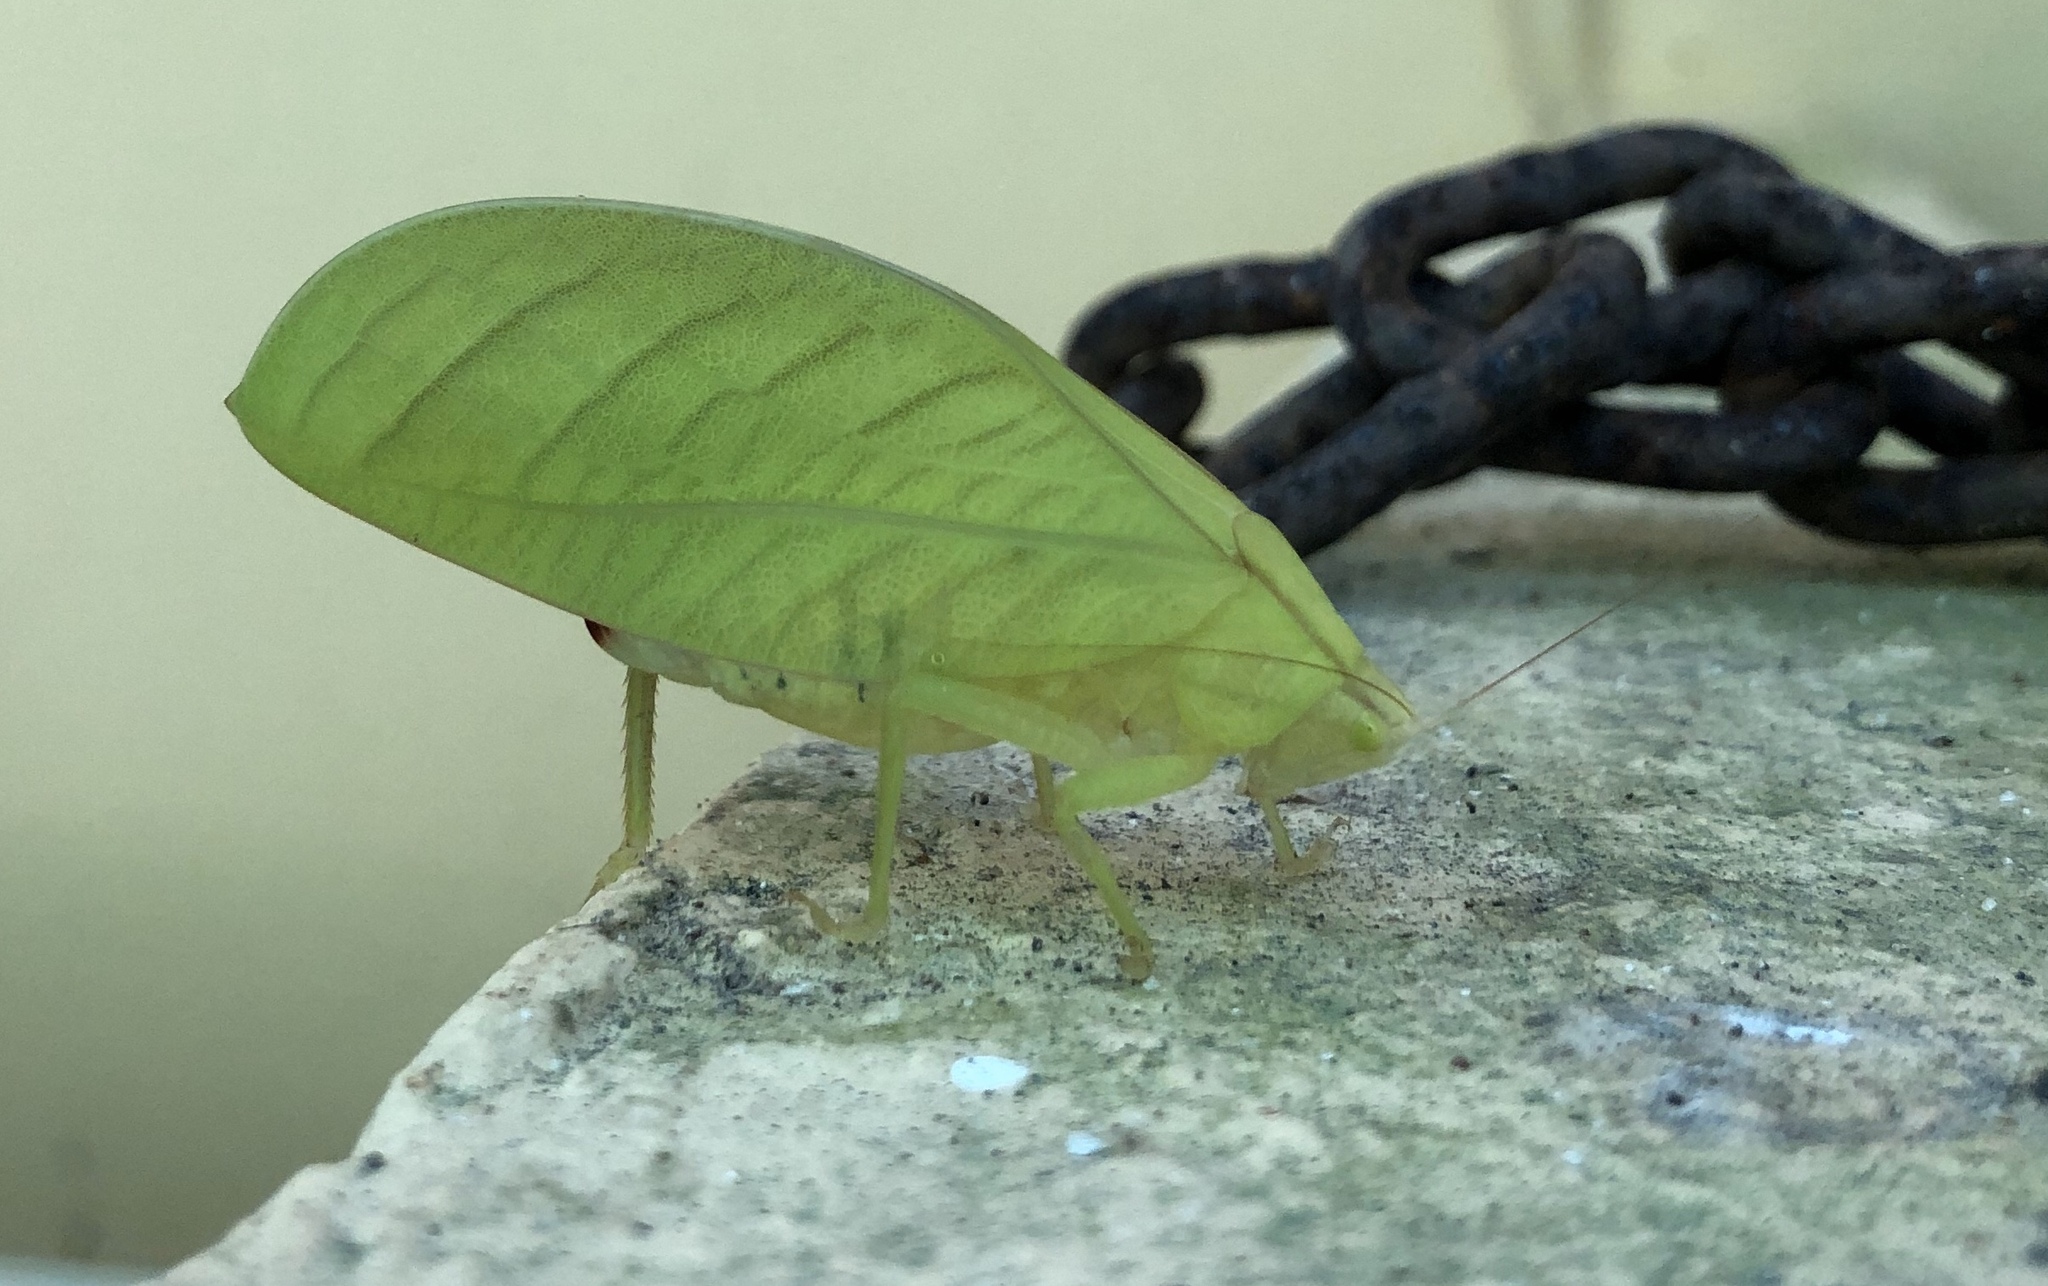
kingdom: Animalia
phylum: Arthropoda
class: Insecta
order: Orthoptera
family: Tettigoniidae
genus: Arota
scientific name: Arota festae
